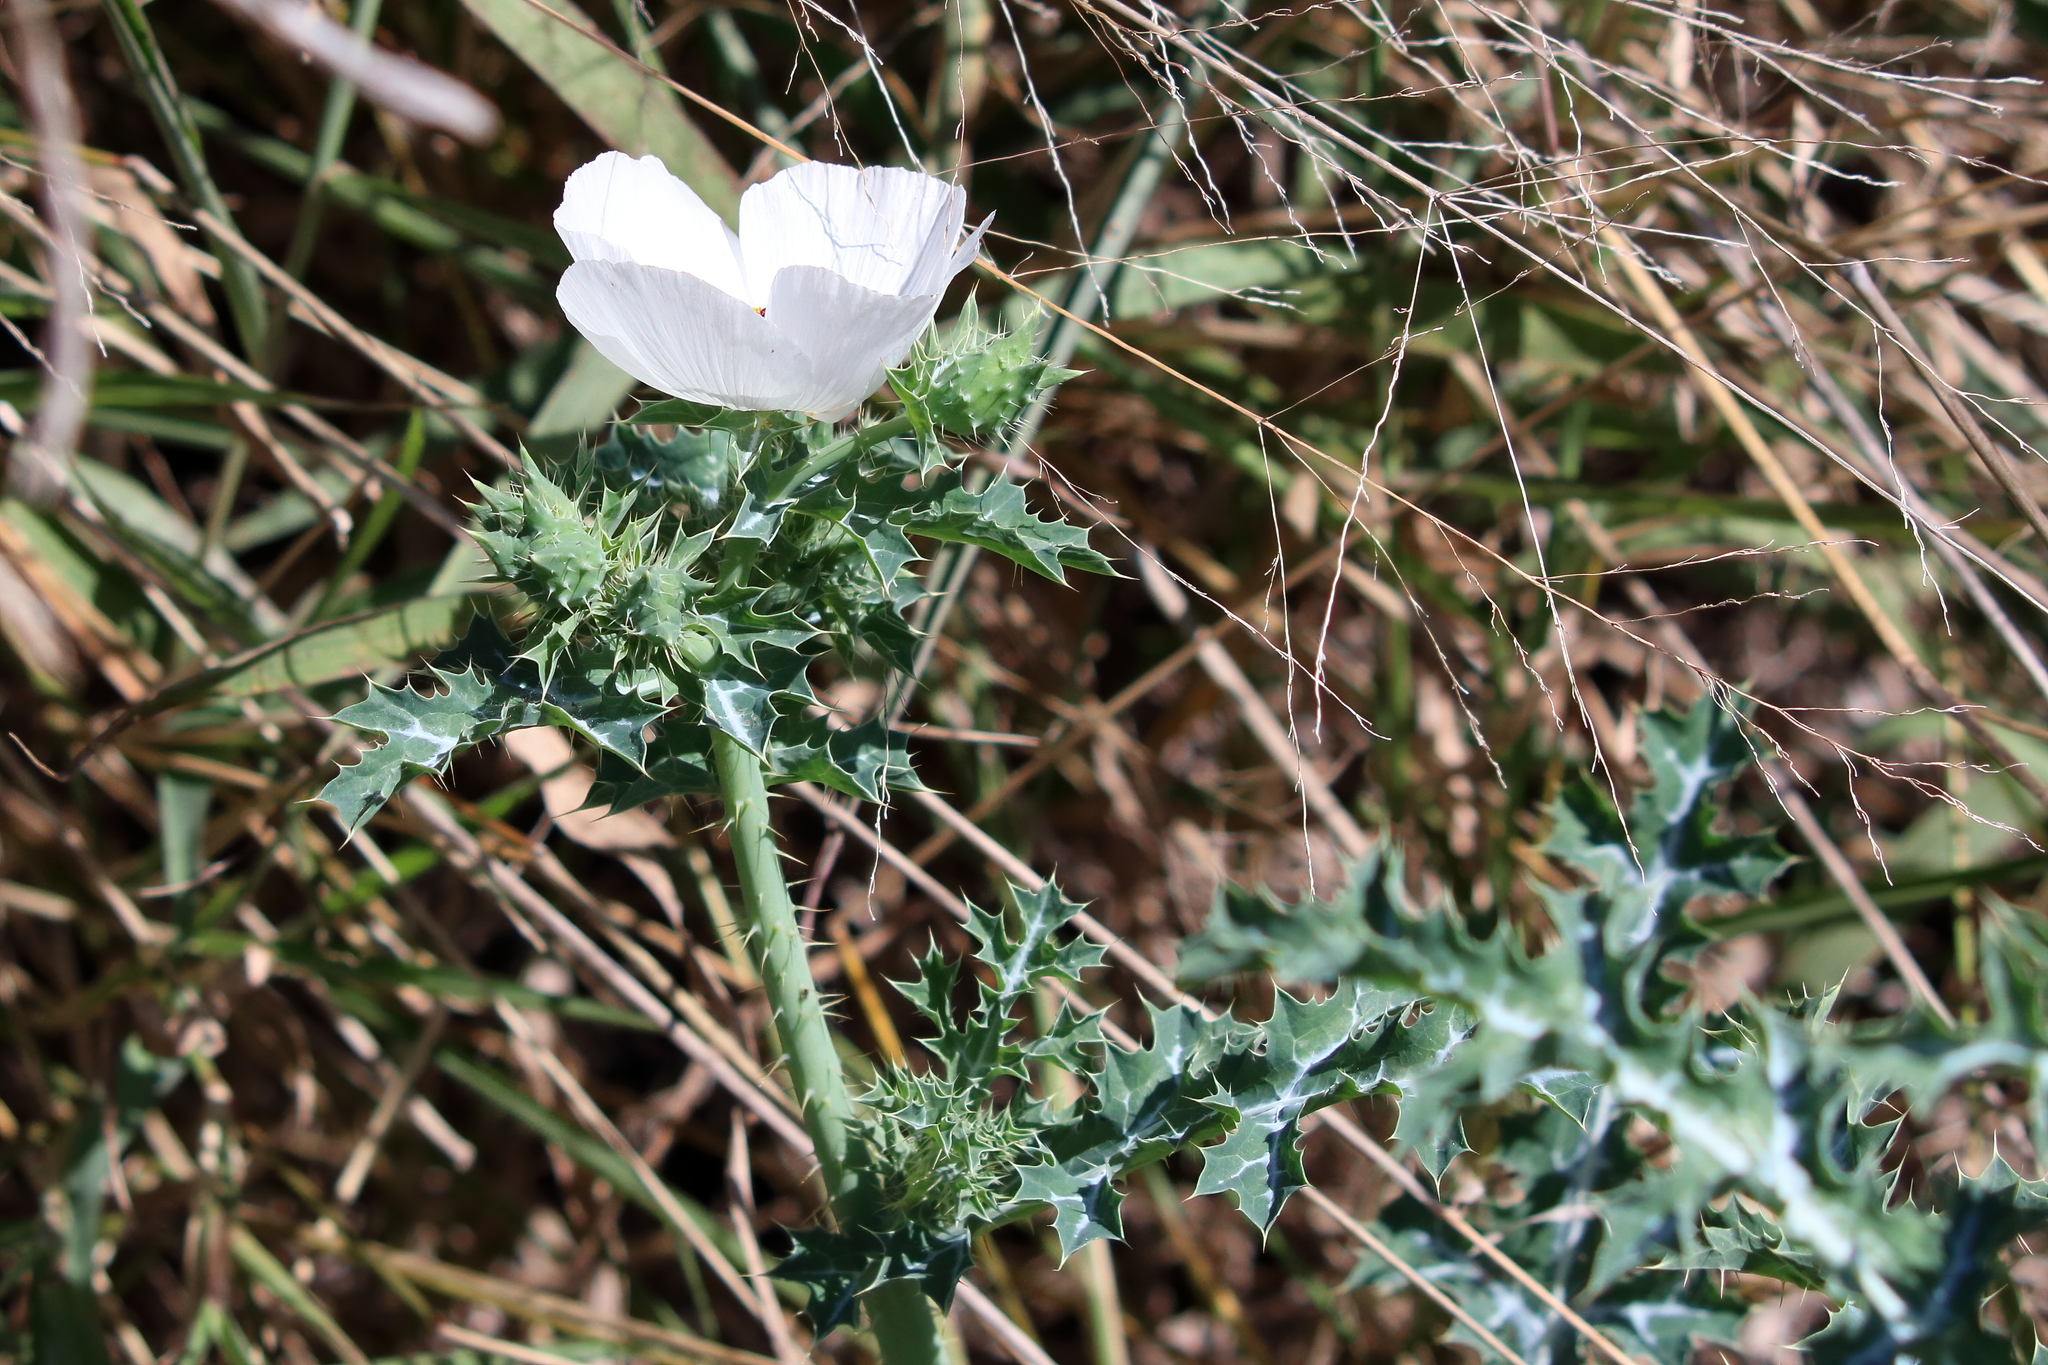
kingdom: Plantae
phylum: Tracheophyta
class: Magnoliopsida
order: Ranunculales
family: Papaveraceae
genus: Argemone
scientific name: Argemone sanguinea
